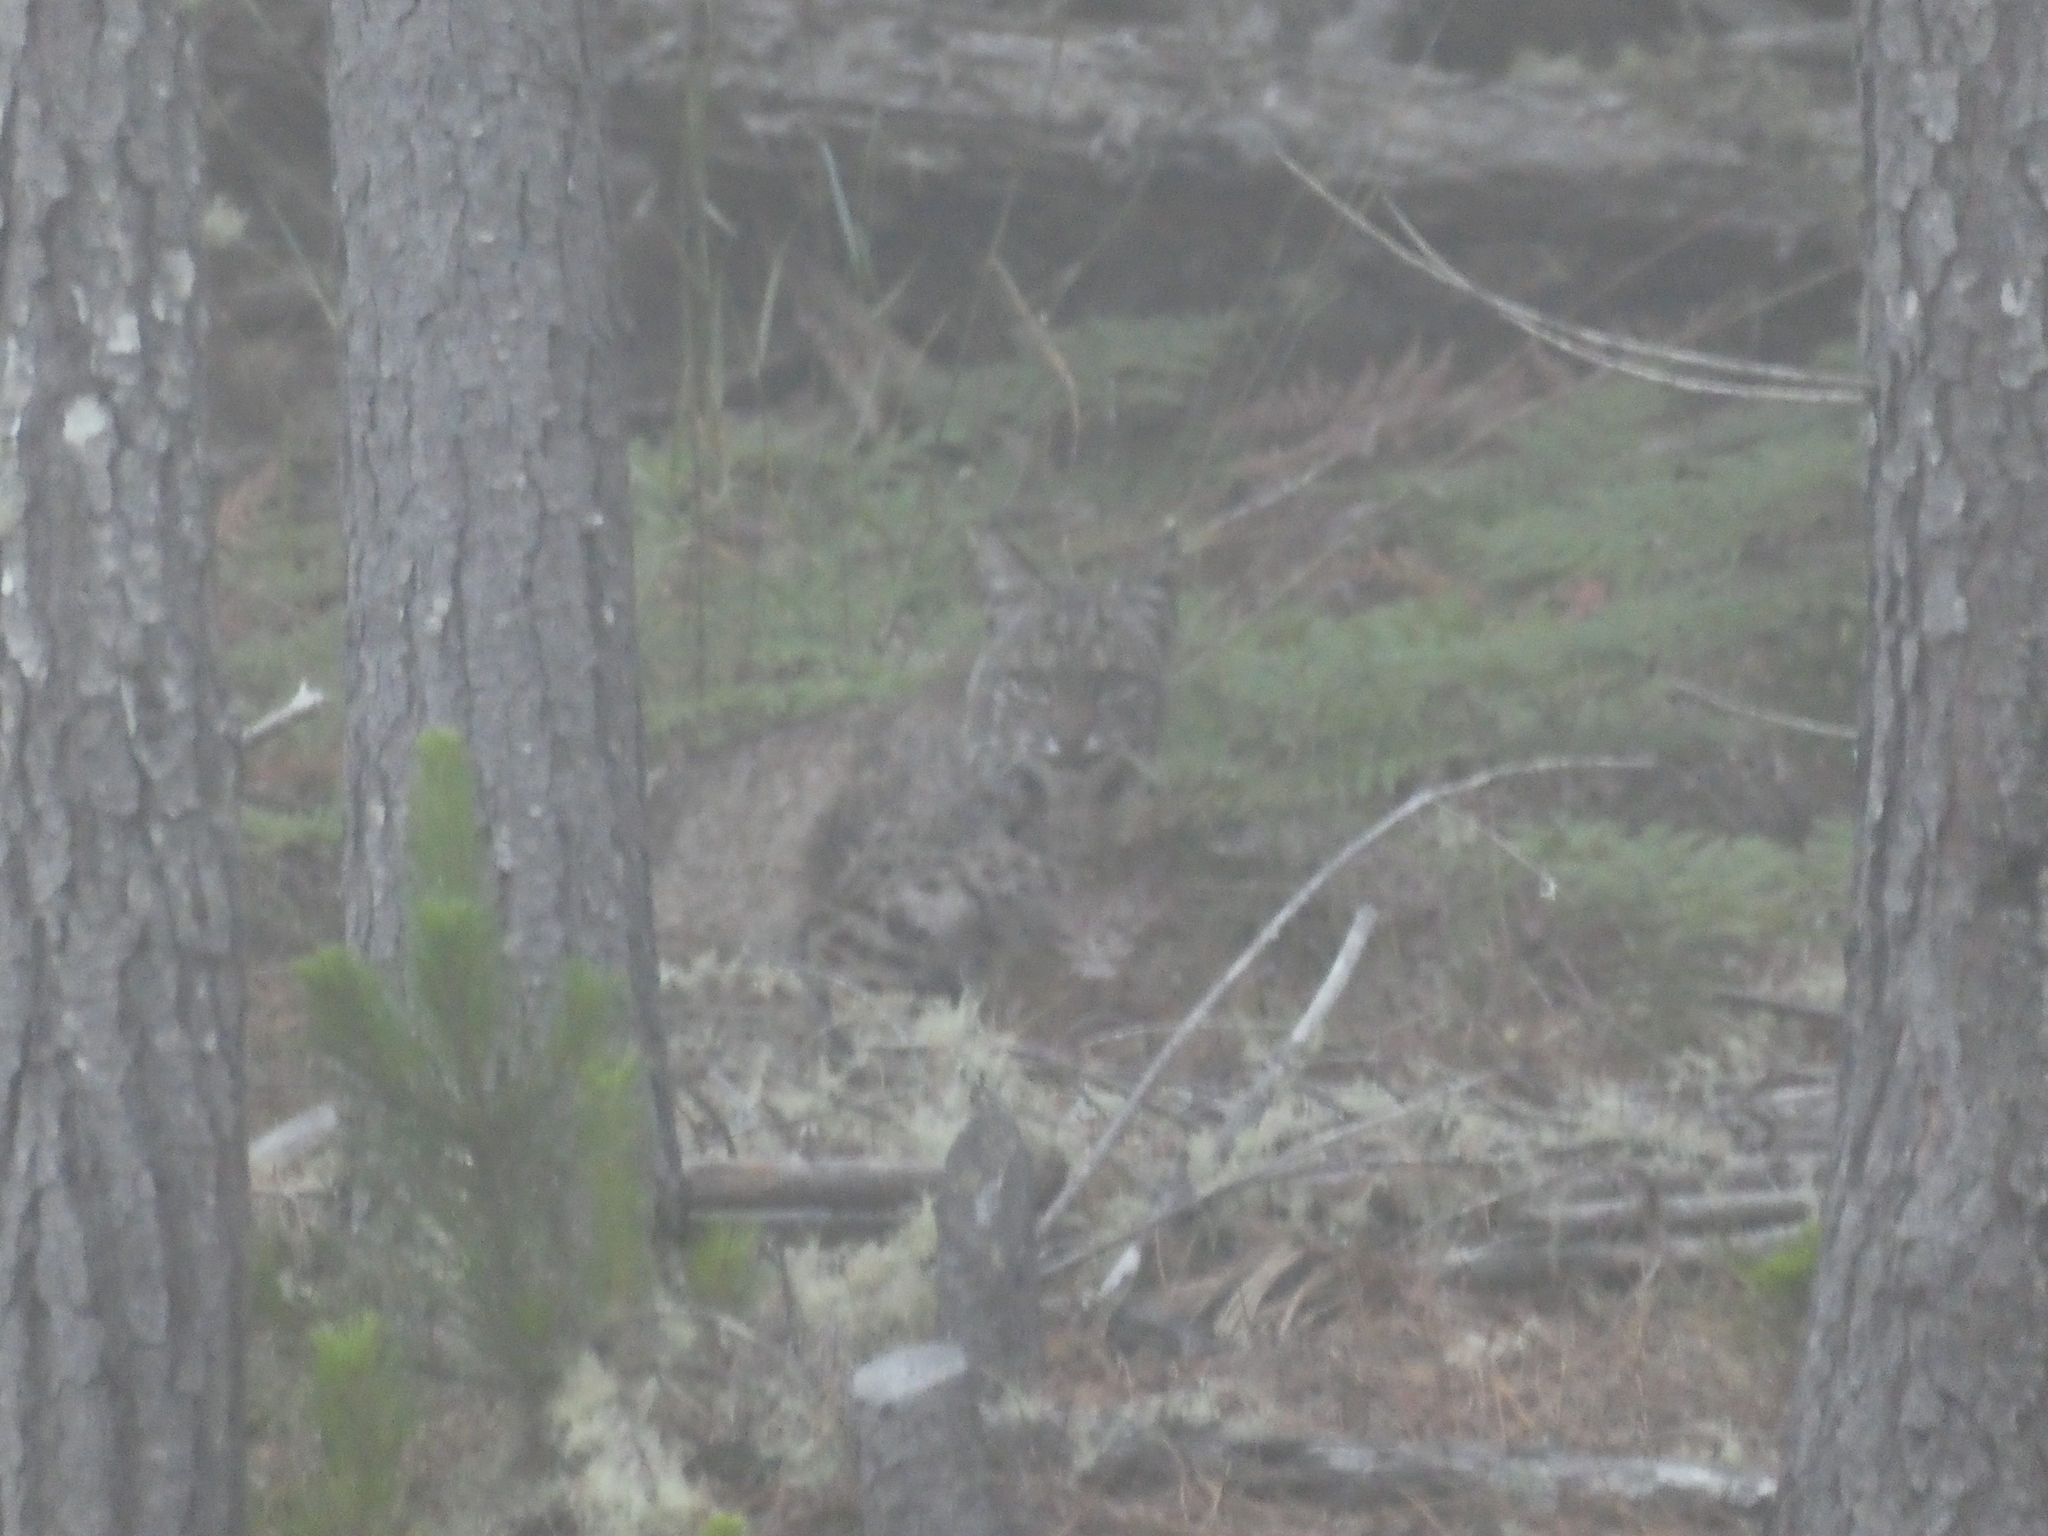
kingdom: Animalia
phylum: Chordata
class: Mammalia
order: Carnivora
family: Felidae
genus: Lynx
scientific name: Lynx rufus
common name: Bobcat
